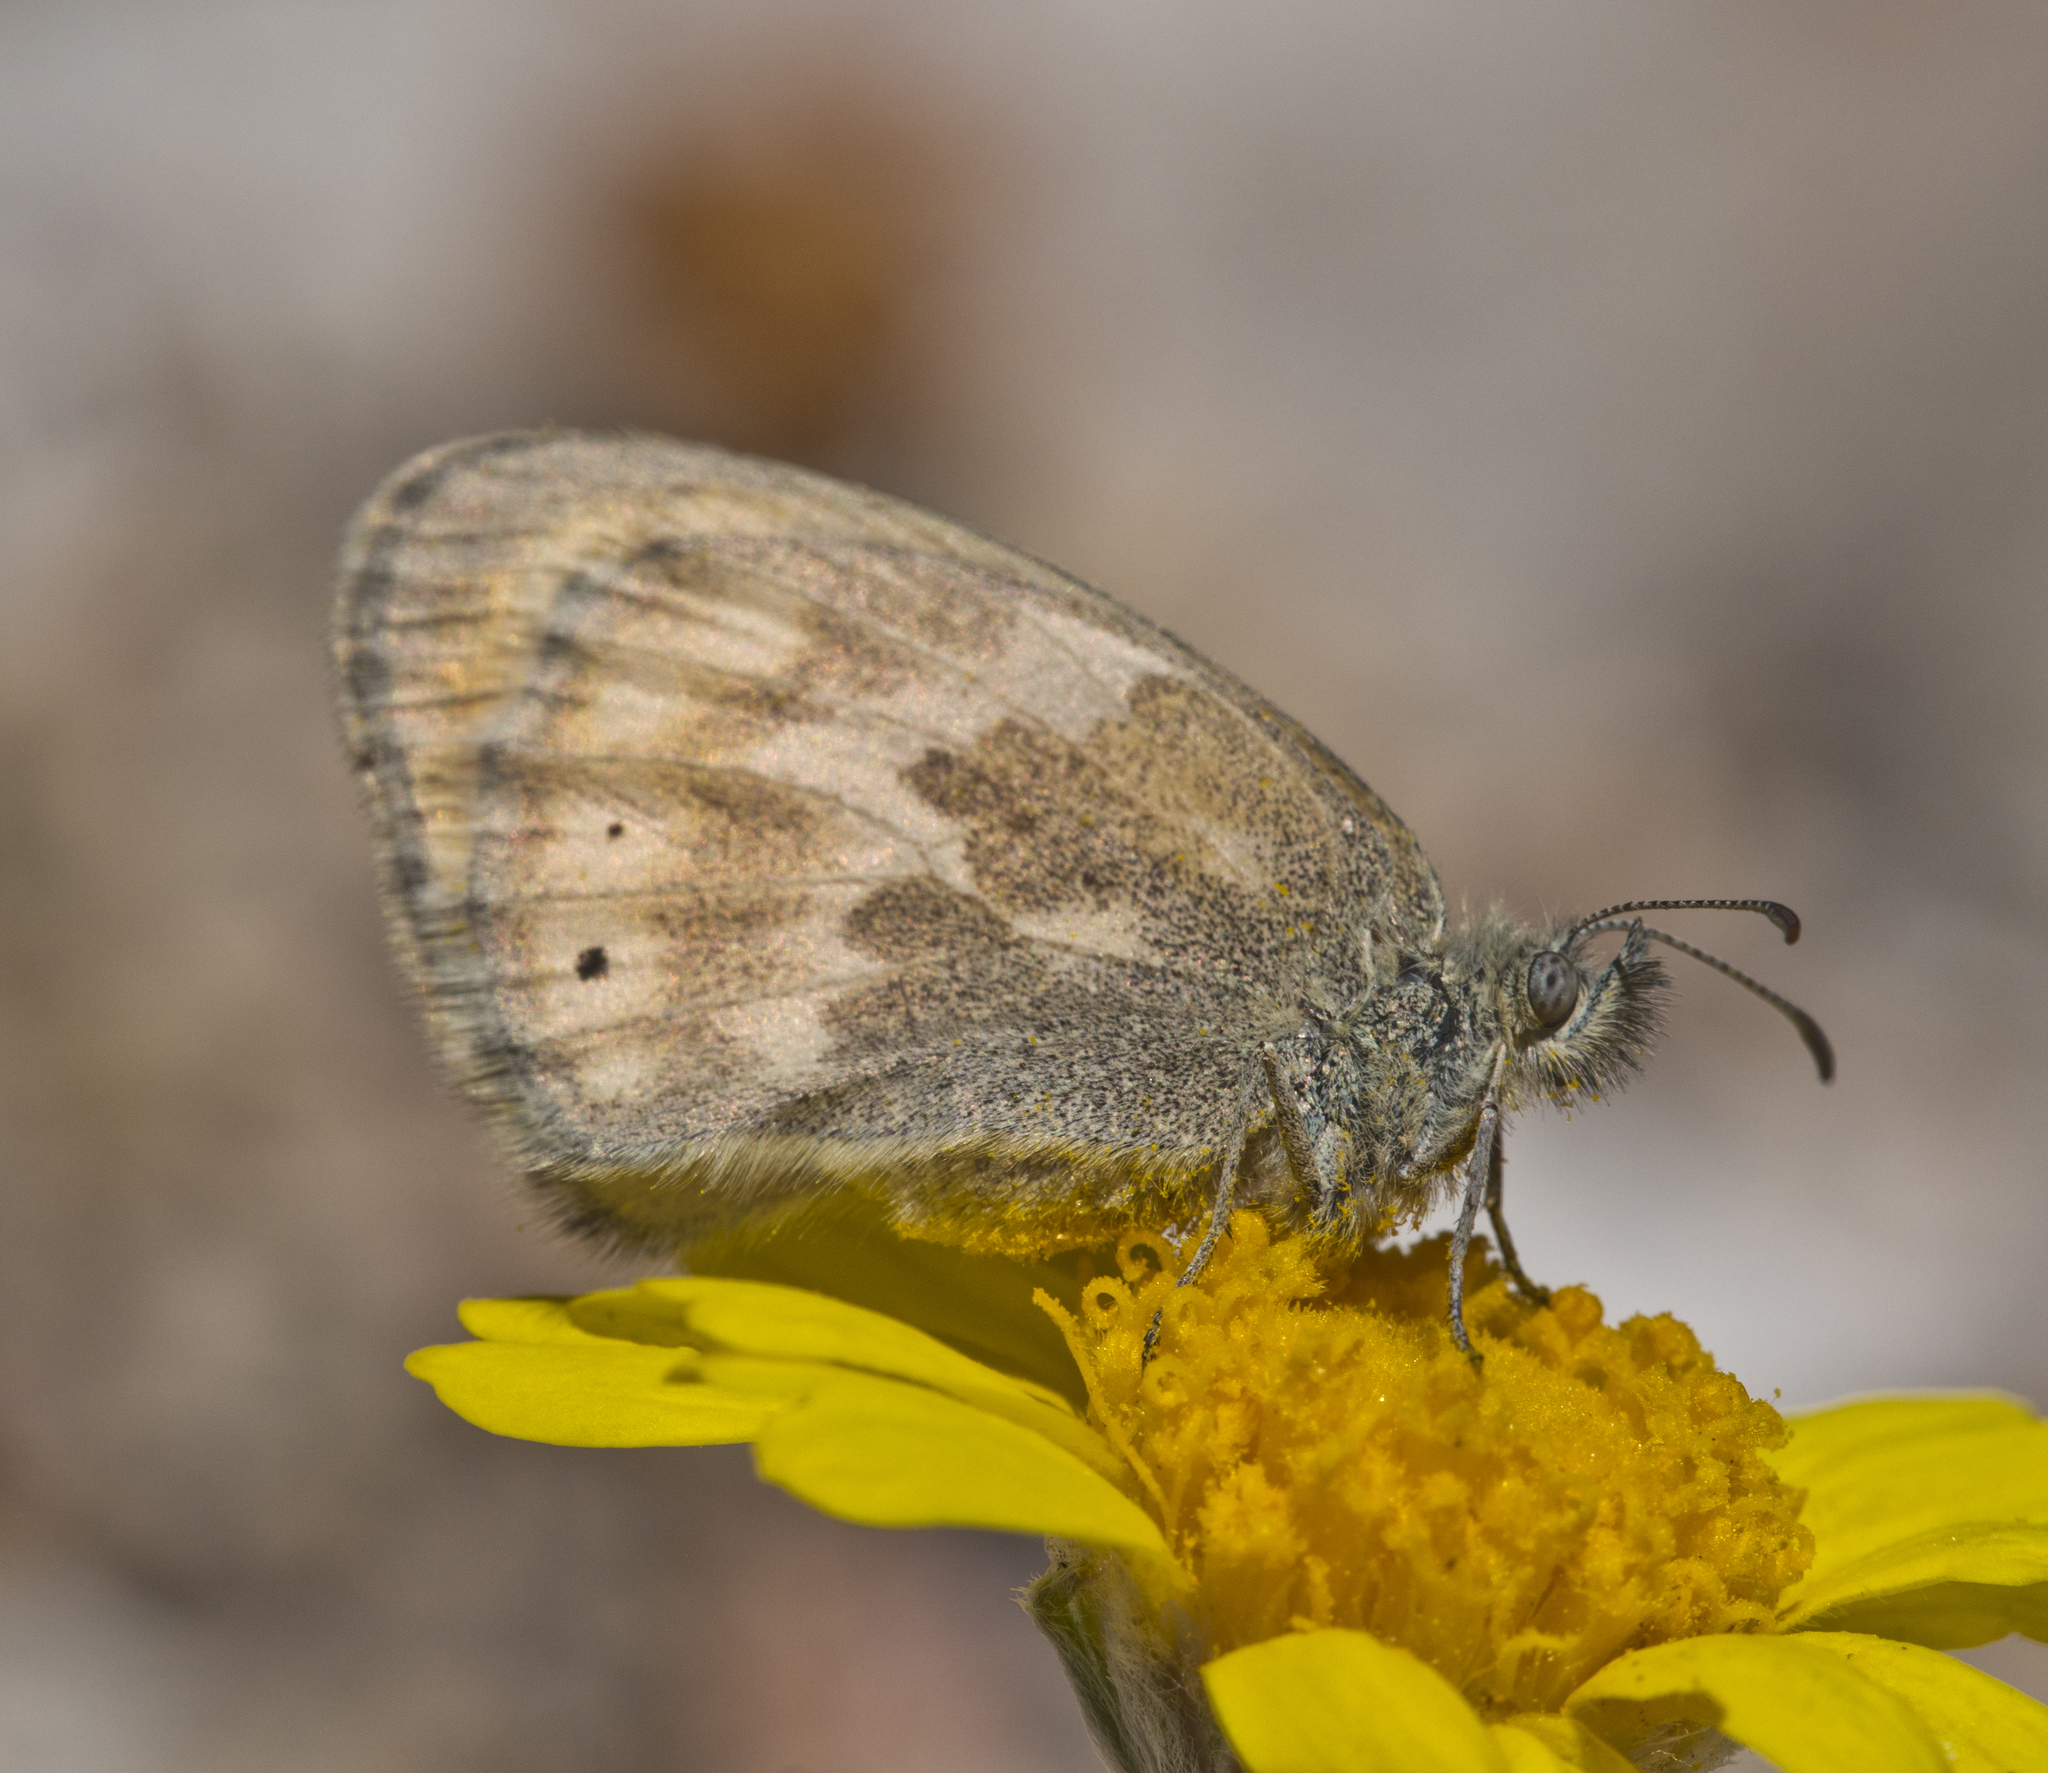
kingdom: Animalia
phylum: Arthropoda
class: Insecta
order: Lepidoptera
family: Nymphalidae
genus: Coenonympha
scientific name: Coenonympha california
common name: Common ringlet
